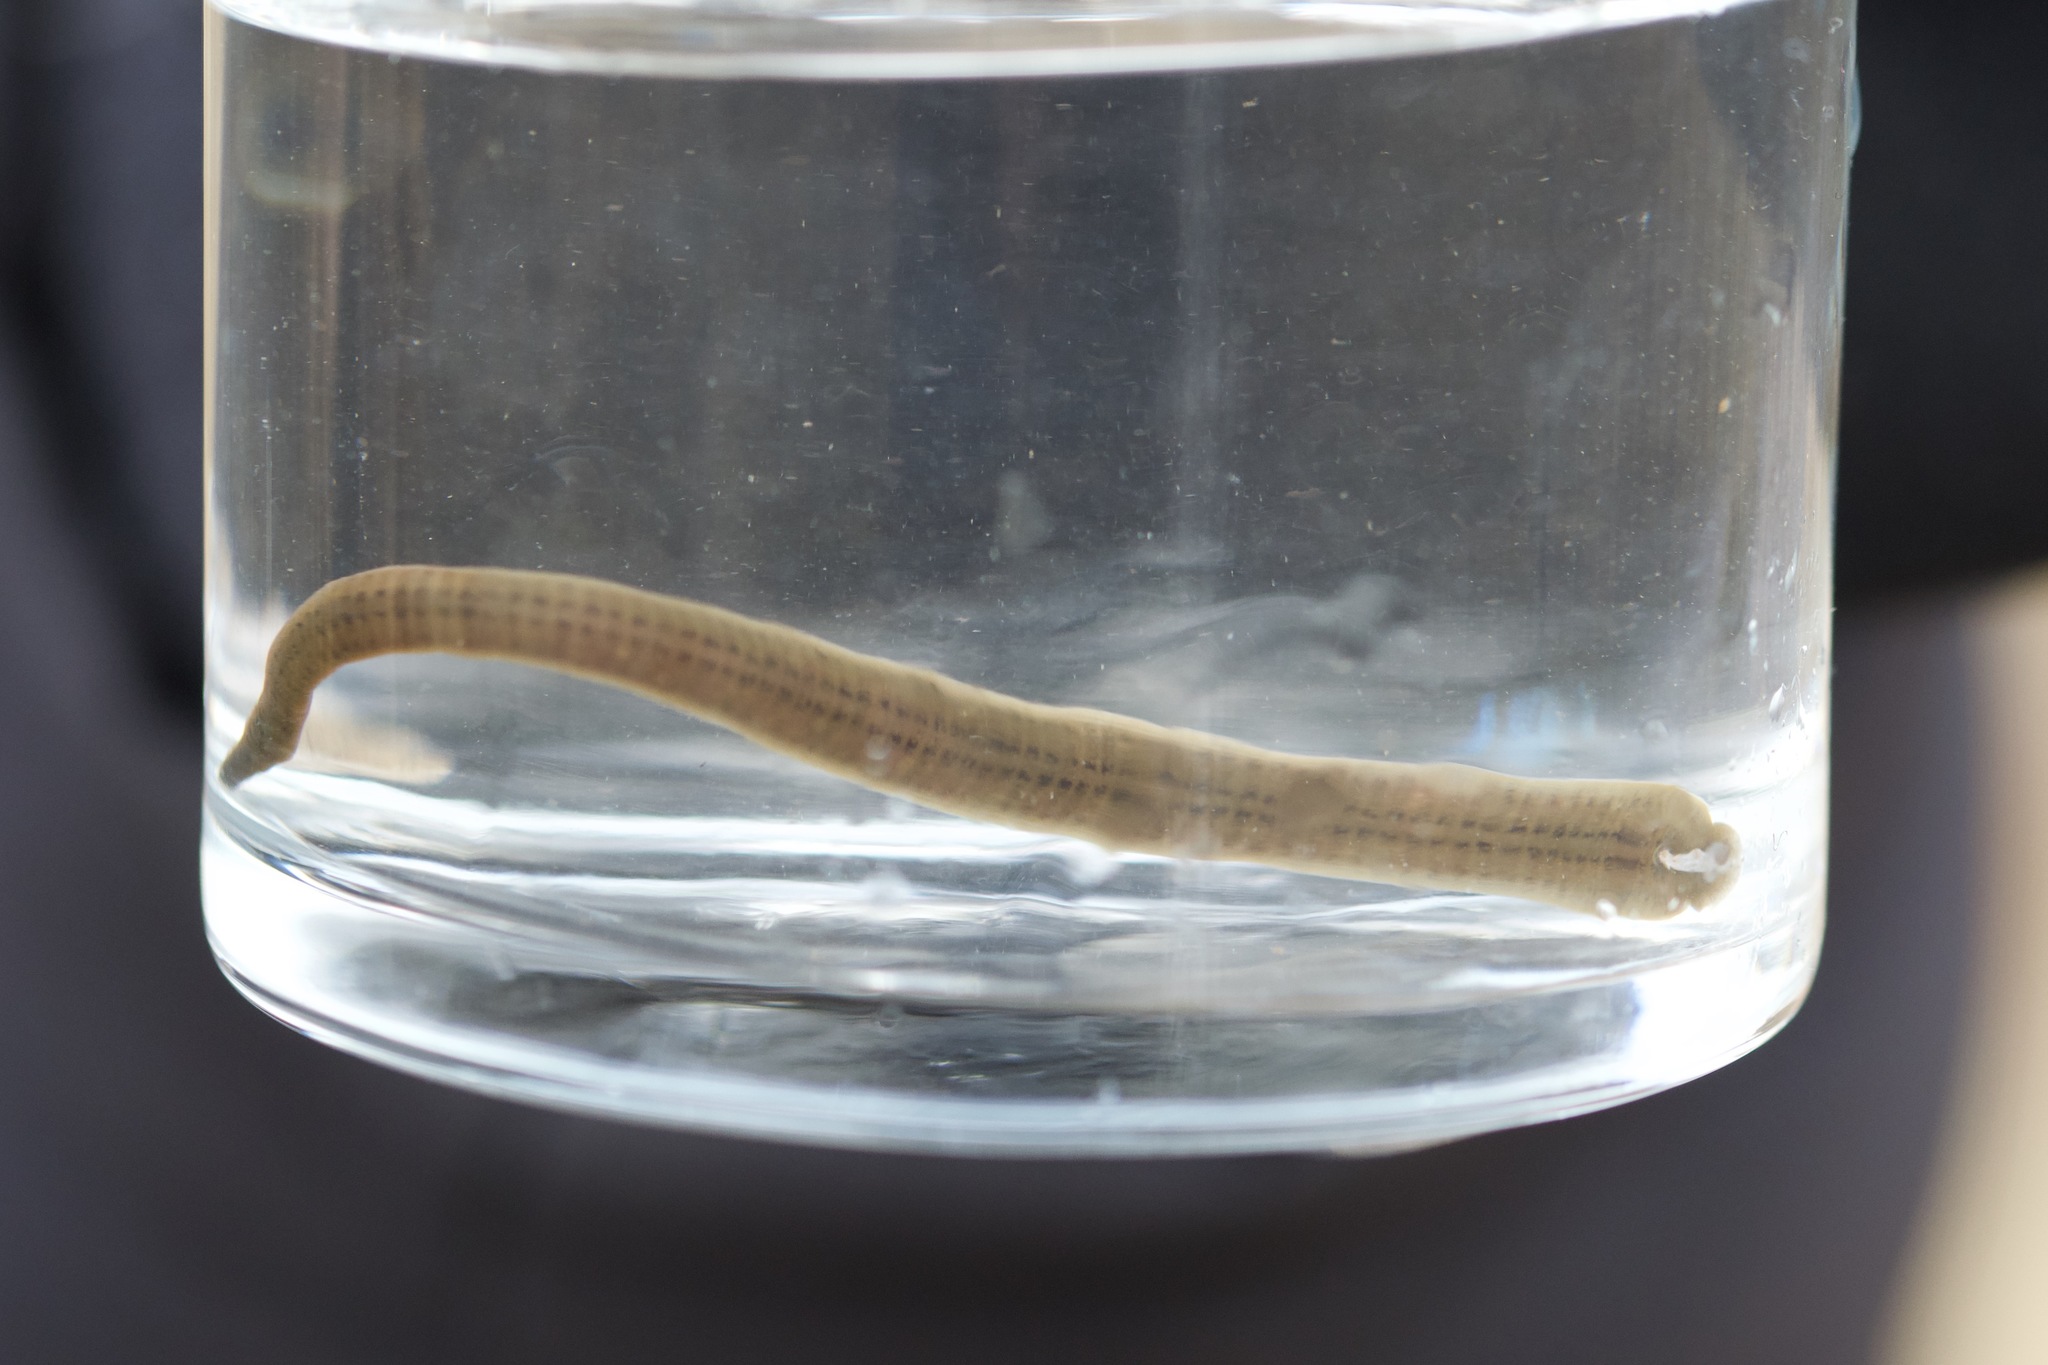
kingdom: Animalia
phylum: Annelida
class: Clitellata
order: Arhynchobdellida
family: Erpobdellidae
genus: Erpobdella
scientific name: Erpobdella punctata
